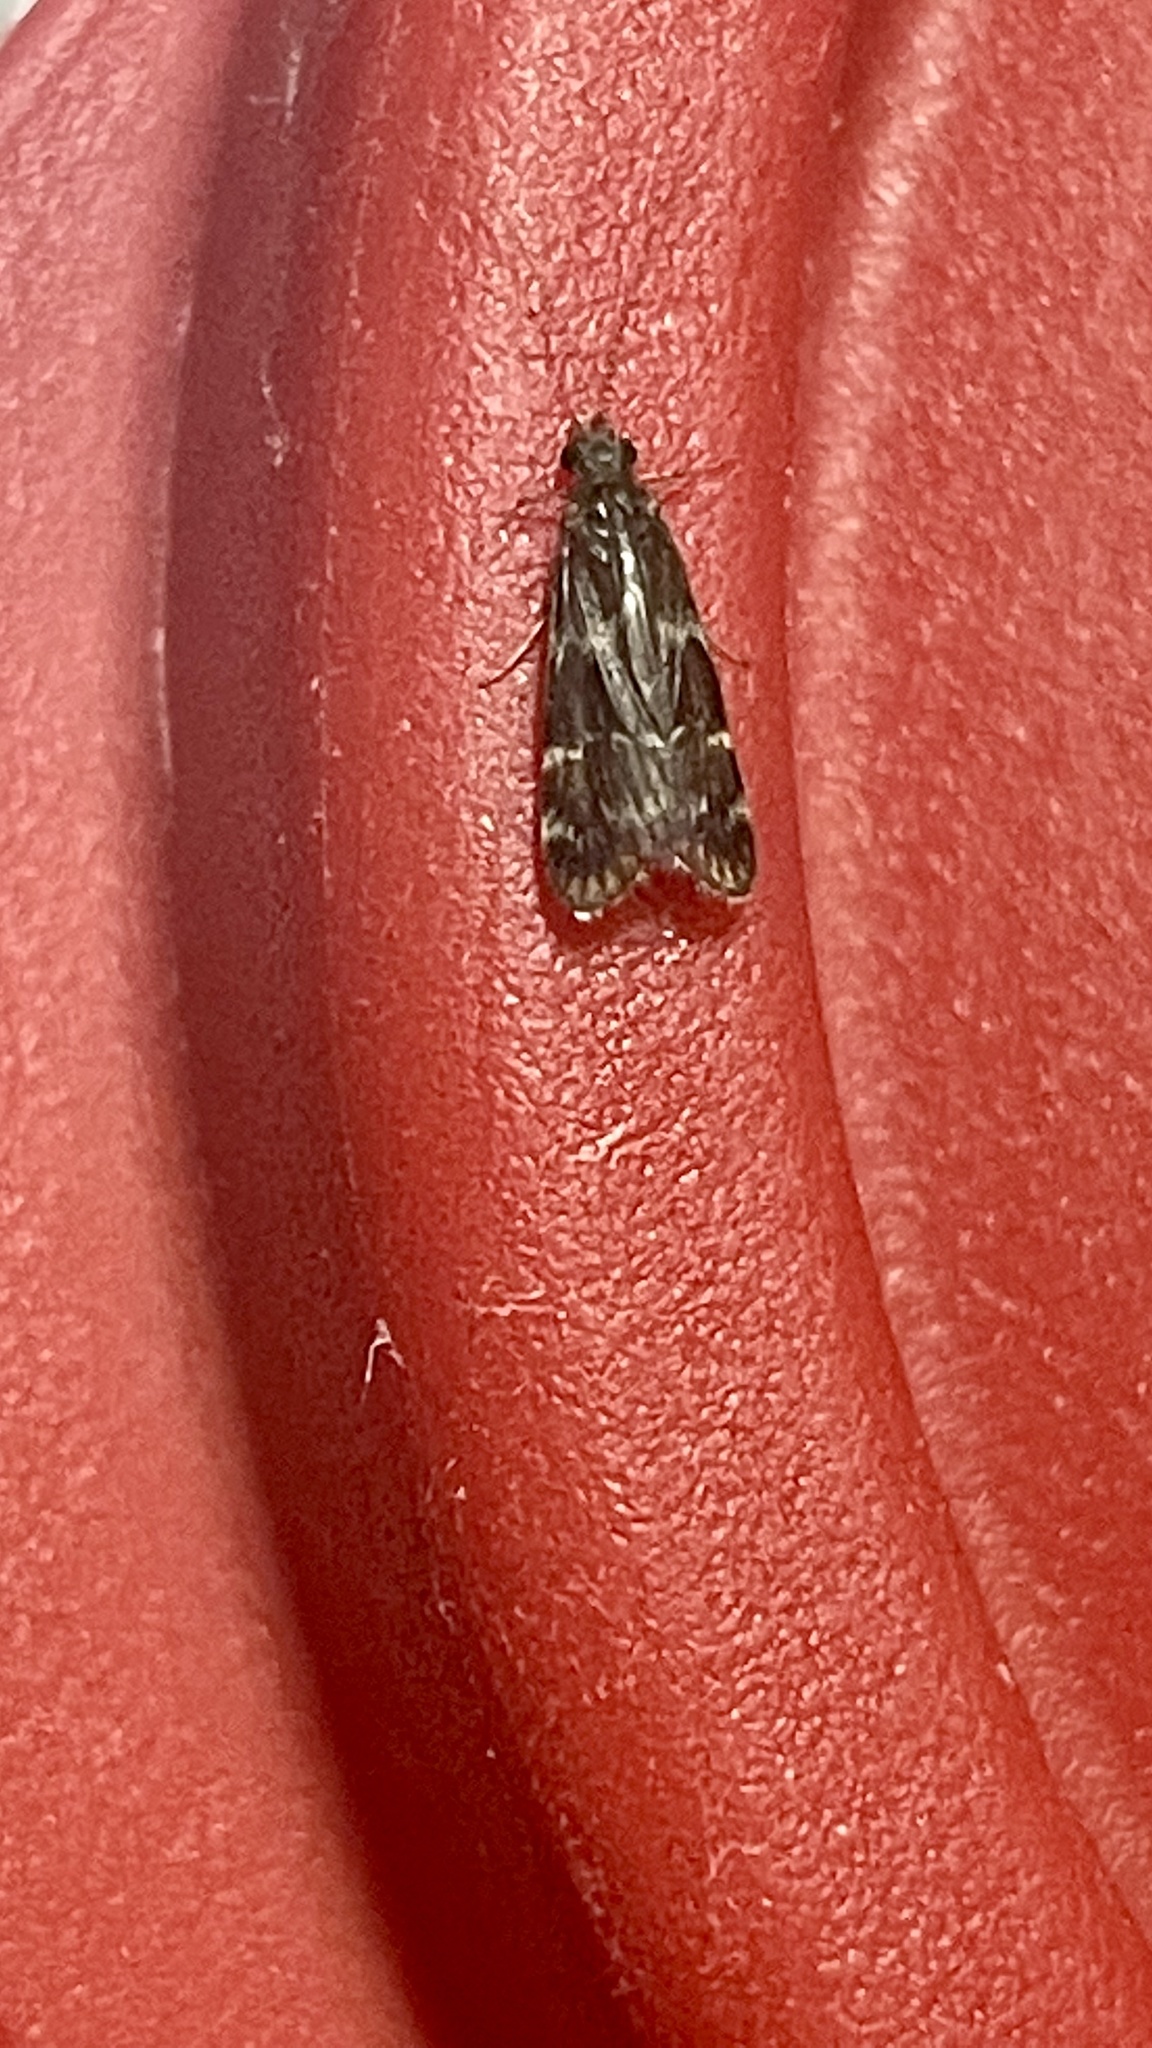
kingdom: Animalia
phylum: Arthropoda
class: Insecta
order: Trichoptera
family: Hydropsychidae
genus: Smicridea
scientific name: Smicridea fasciatella
